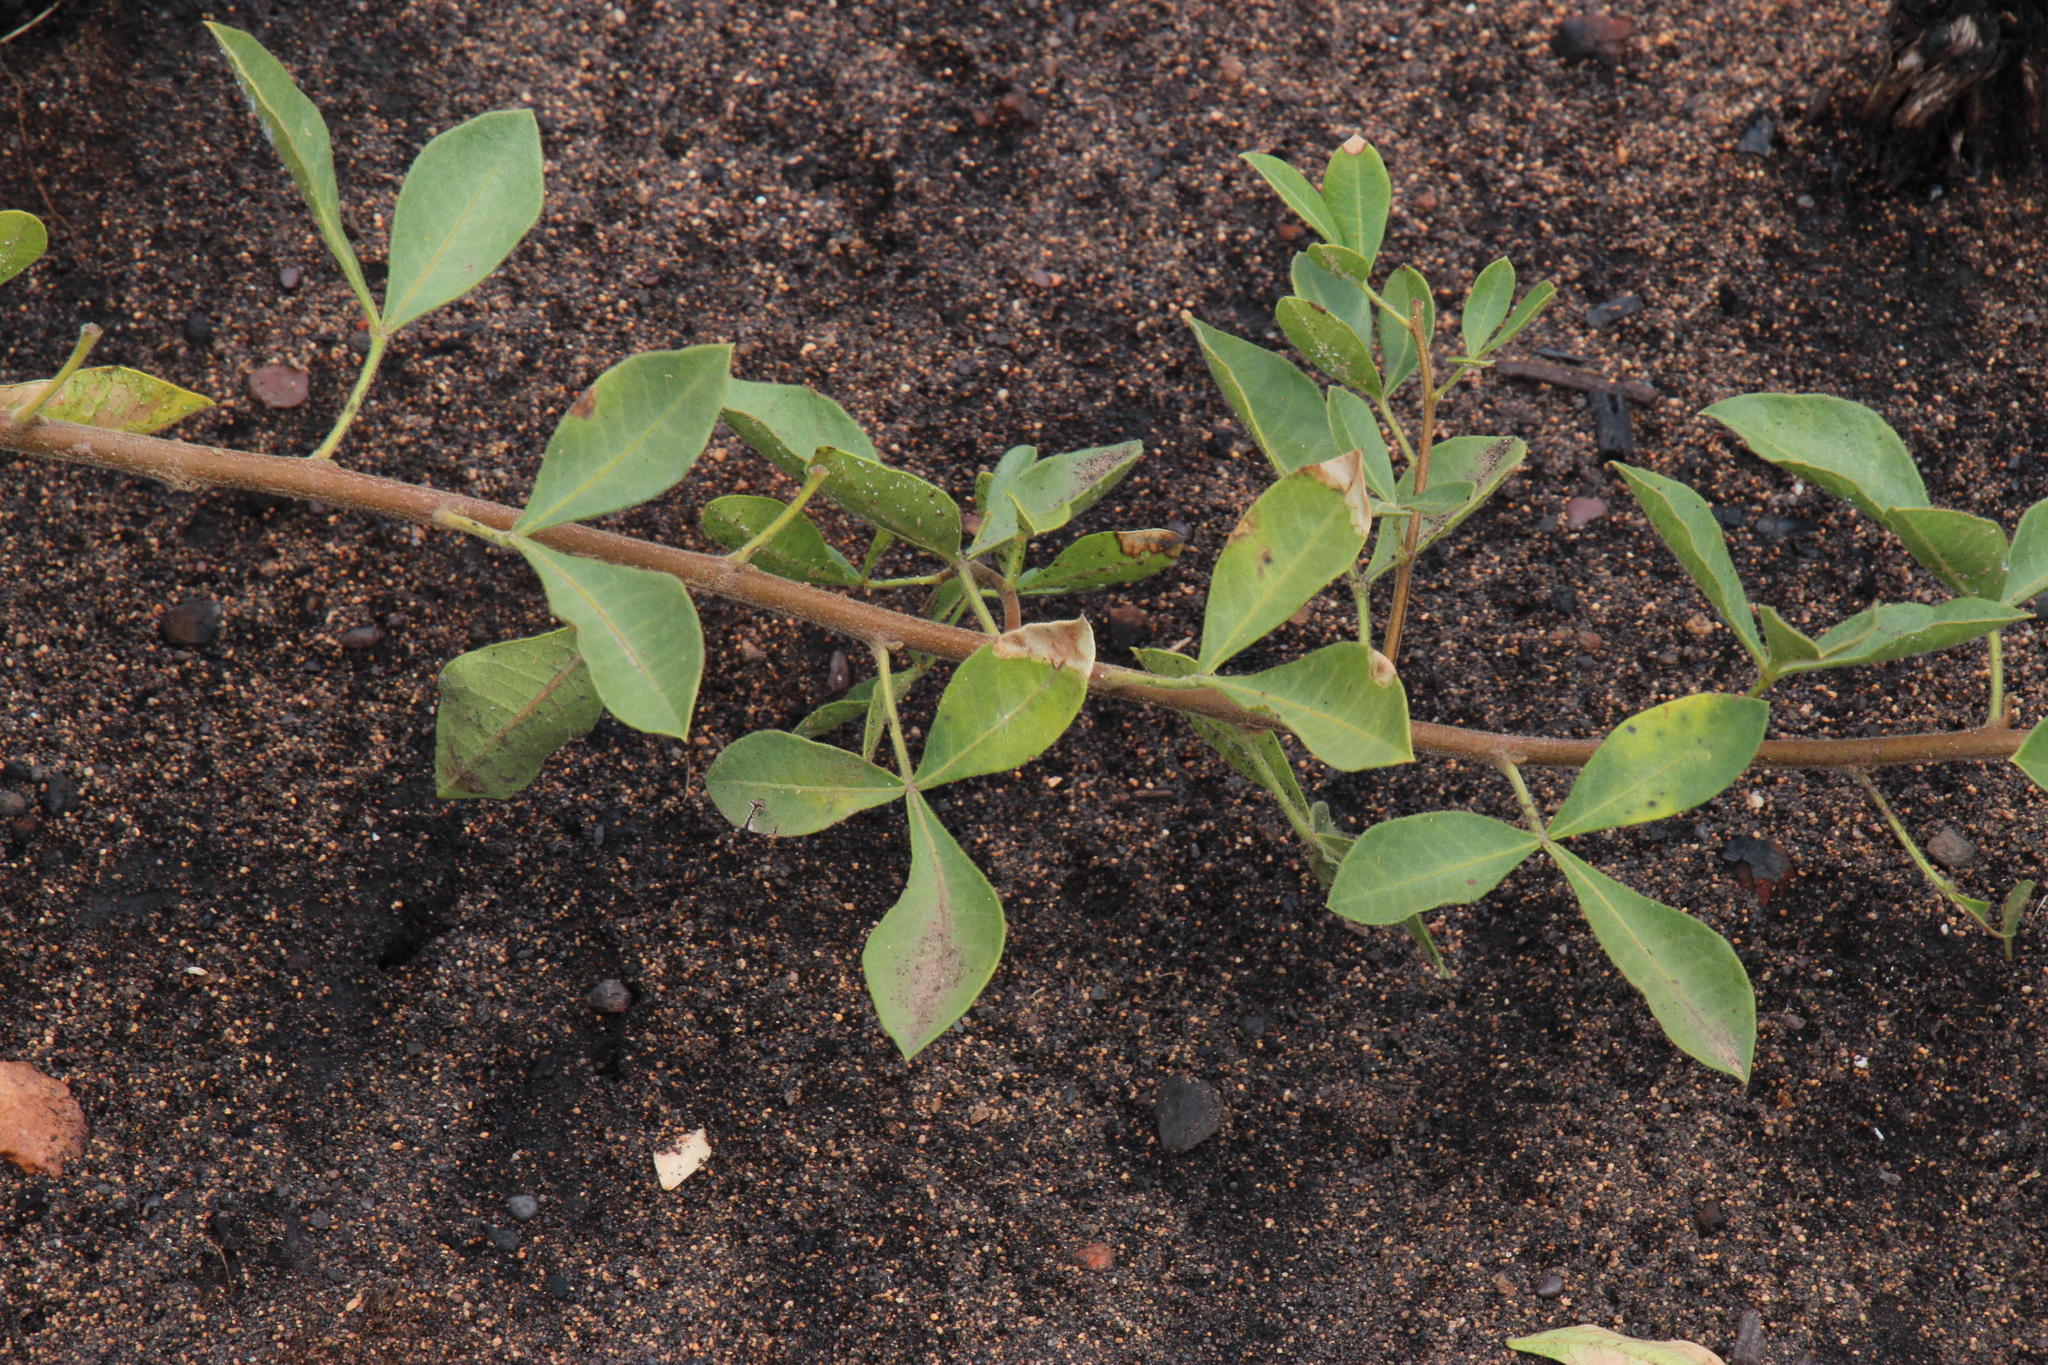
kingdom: Plantae
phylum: Tracheophyta
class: Magnoliopsida
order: Sapindales
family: Anacardiaceae
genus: Searsia
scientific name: Searsia laevigata
